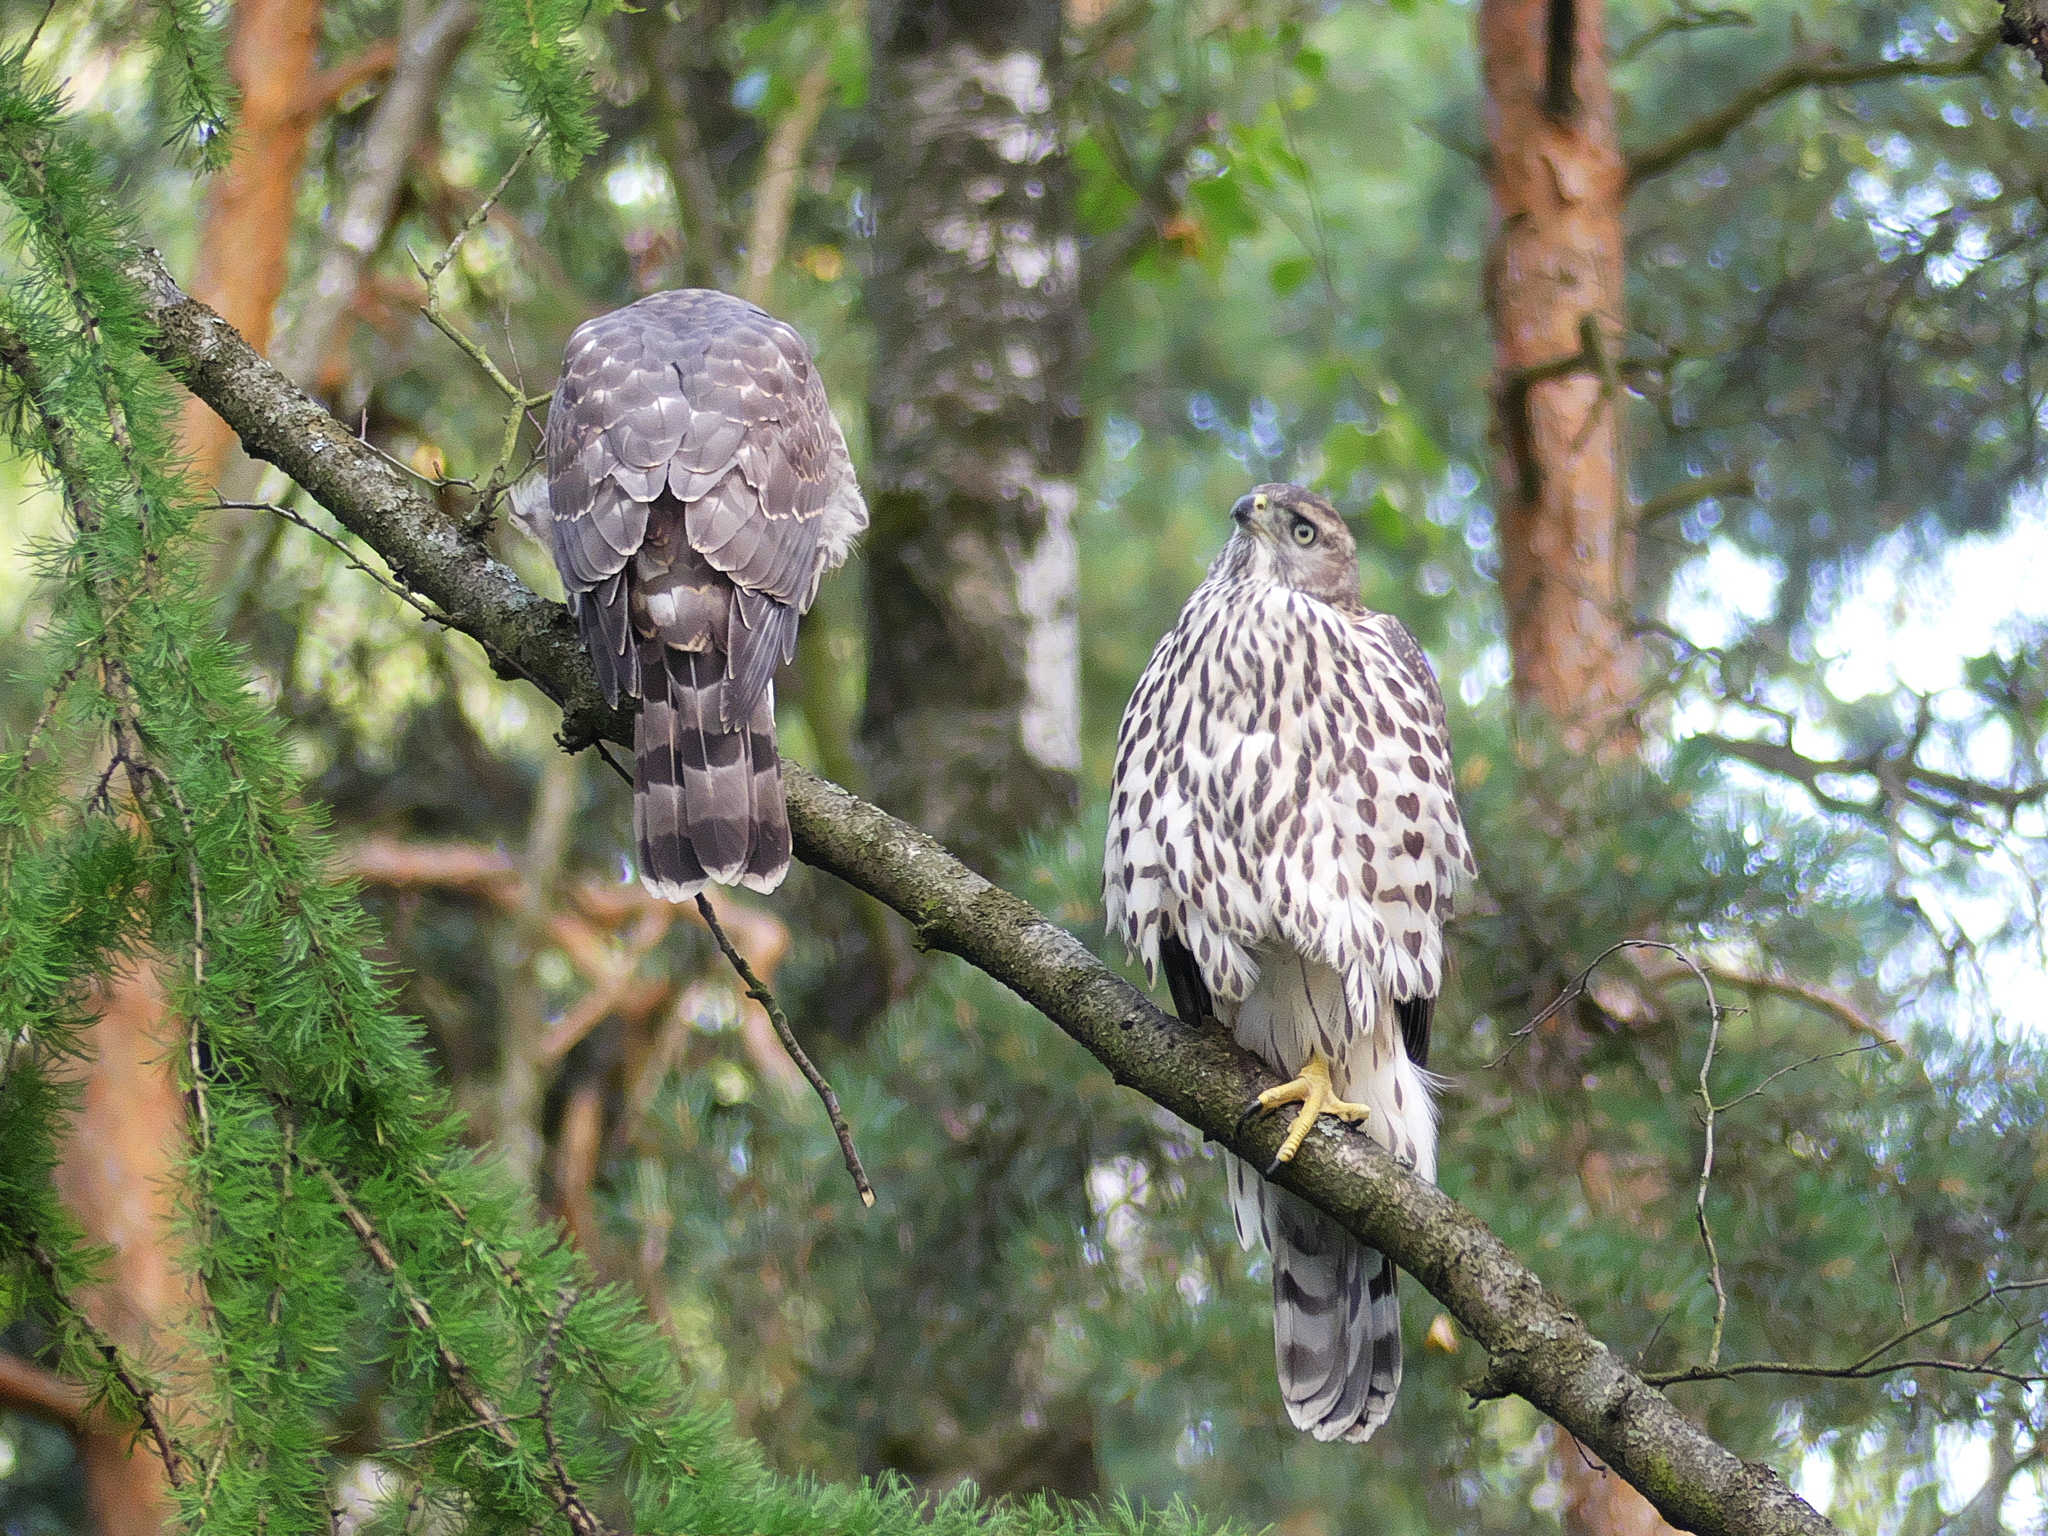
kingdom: Animalia
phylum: Chordata
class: Aves
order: Accipitriformes
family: Accipitridae
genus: Accipiter
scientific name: Accipiter gentilis
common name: Northern goshawk
